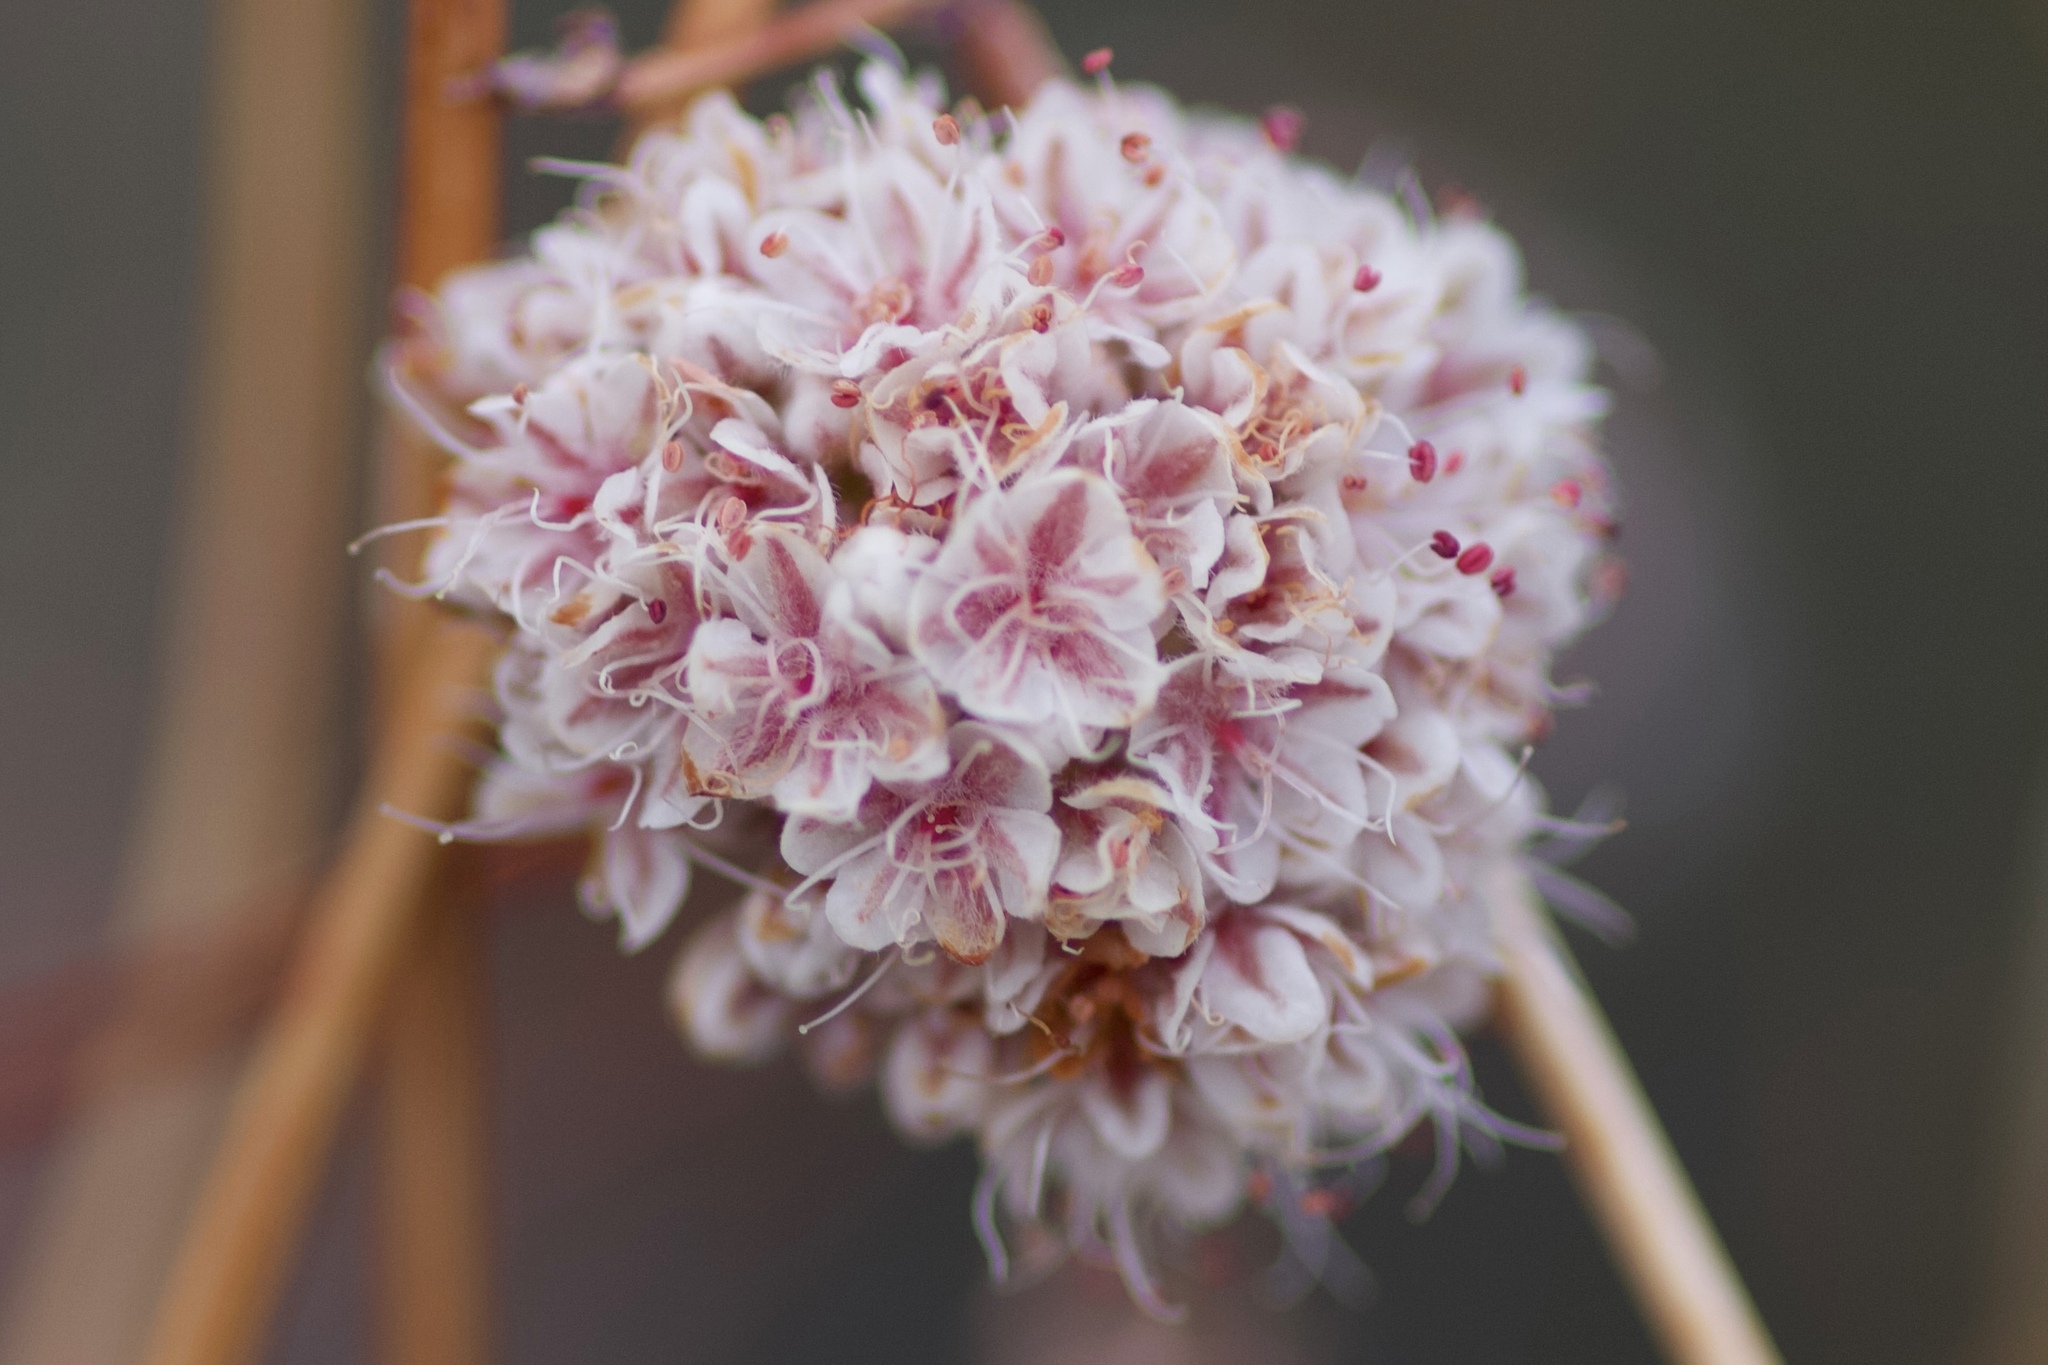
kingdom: Plantae
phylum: Tracheophyta
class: Magnoliopsida
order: Caryophyllales
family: Polygonaceae
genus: Eriogonum
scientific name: Eriogonum fasciculatum
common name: California wild buckwheat
